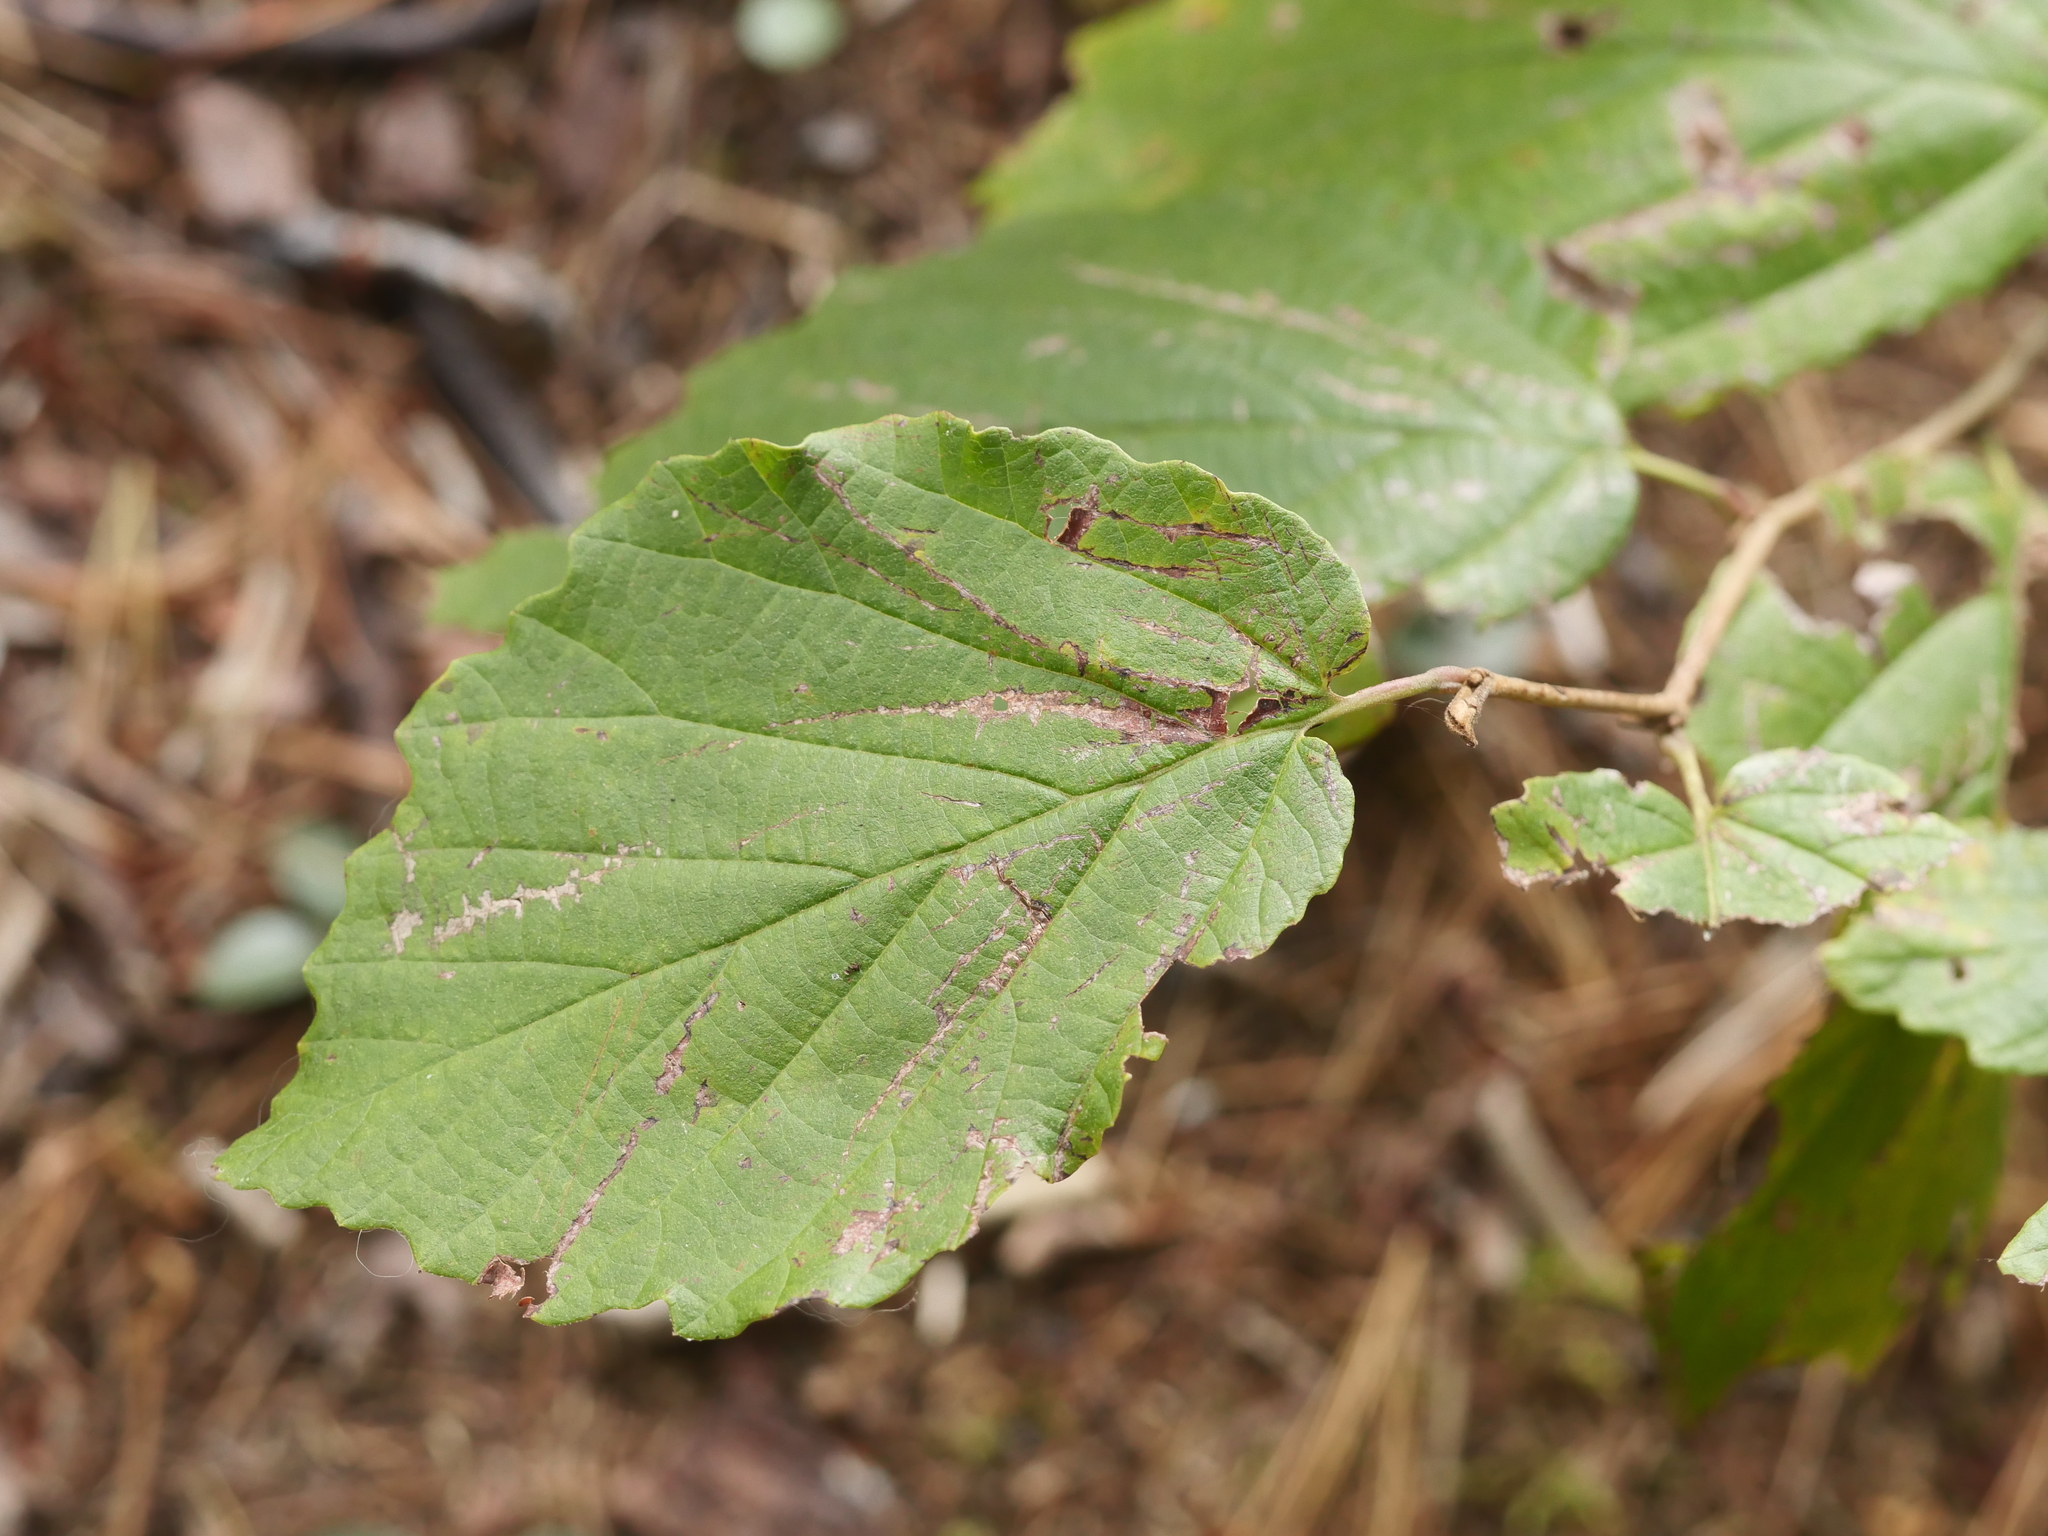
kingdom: Plantae
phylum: Tracheophyta
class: Magnoliopsida
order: Saxifragales
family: Hamamelidaceae
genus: Hamamelis
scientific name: Hamamelis virginiana
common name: Witch-hazel
